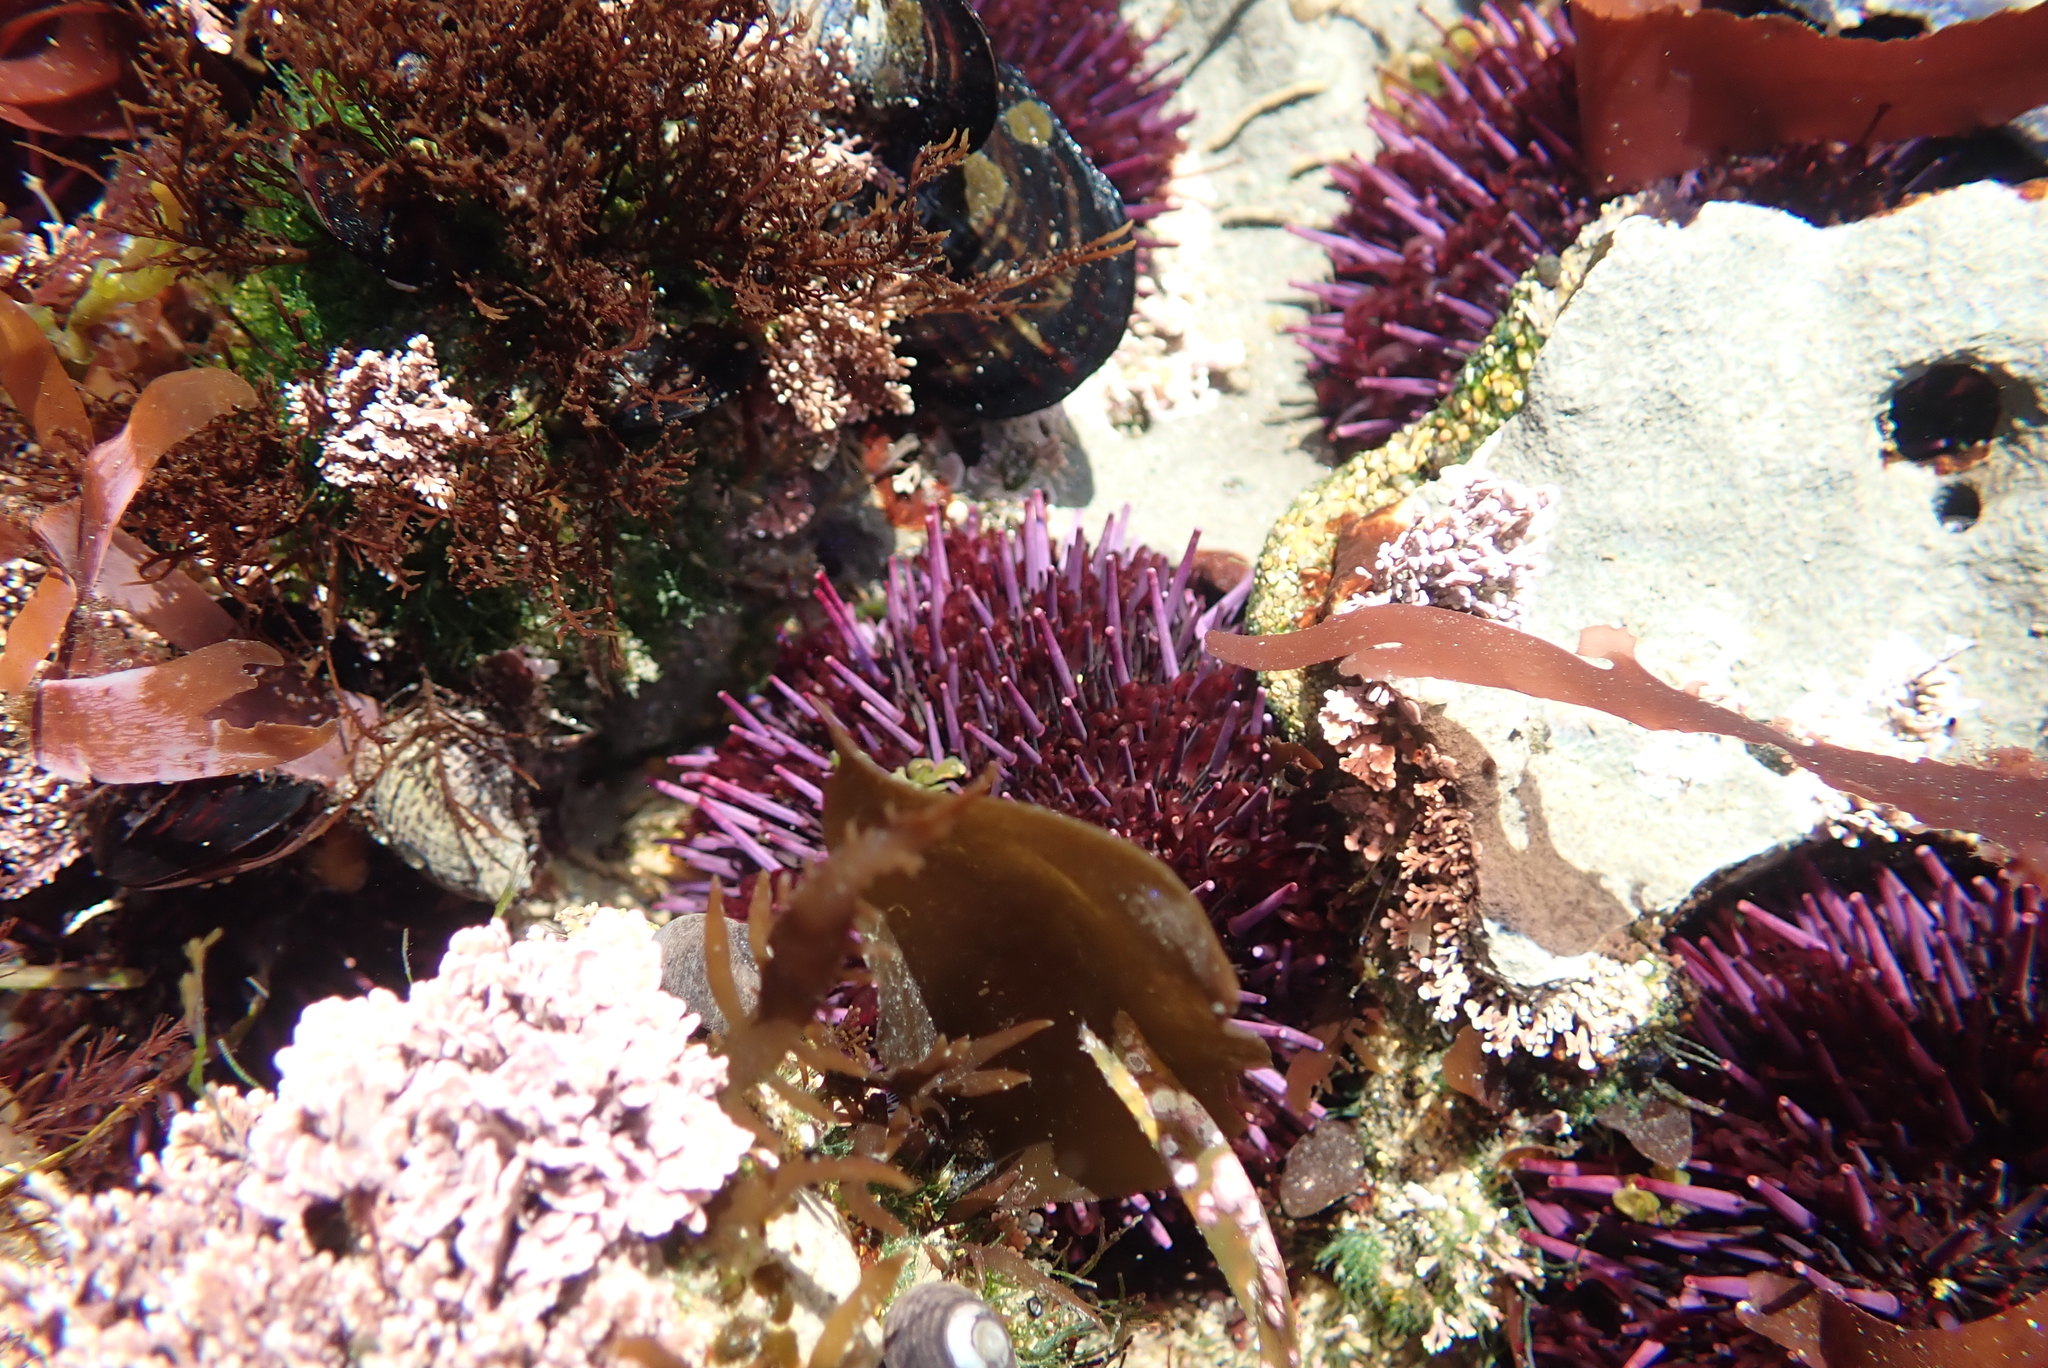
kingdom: Animalia
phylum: Echinodermata
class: Echinoidea
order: Camarodonta
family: Strongylocentrotidae
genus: Strongylocentrotus
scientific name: Strongylocentrotus purpuratus
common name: Purple sea urchin
